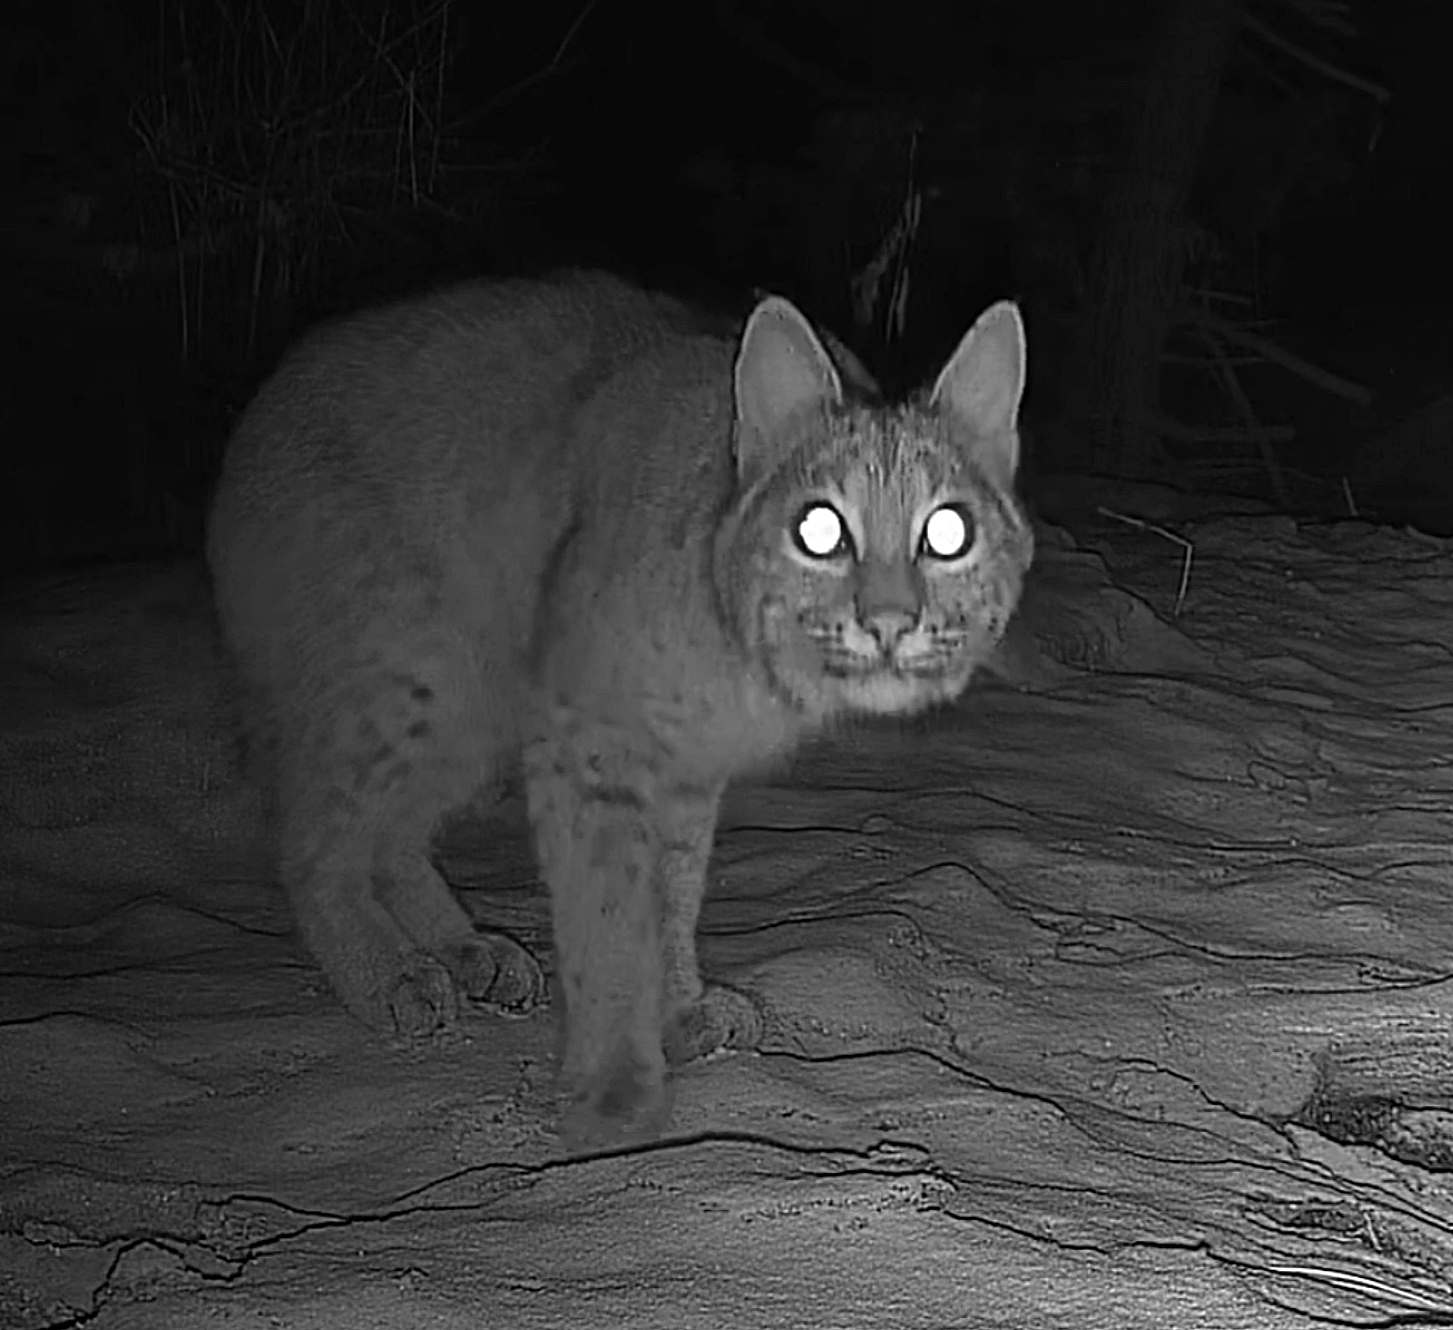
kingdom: Animalia
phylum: Chordata
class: Mammalia
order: Carnivora
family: Felidae
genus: Lynx
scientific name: Lynx rufus
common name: Bobcat
